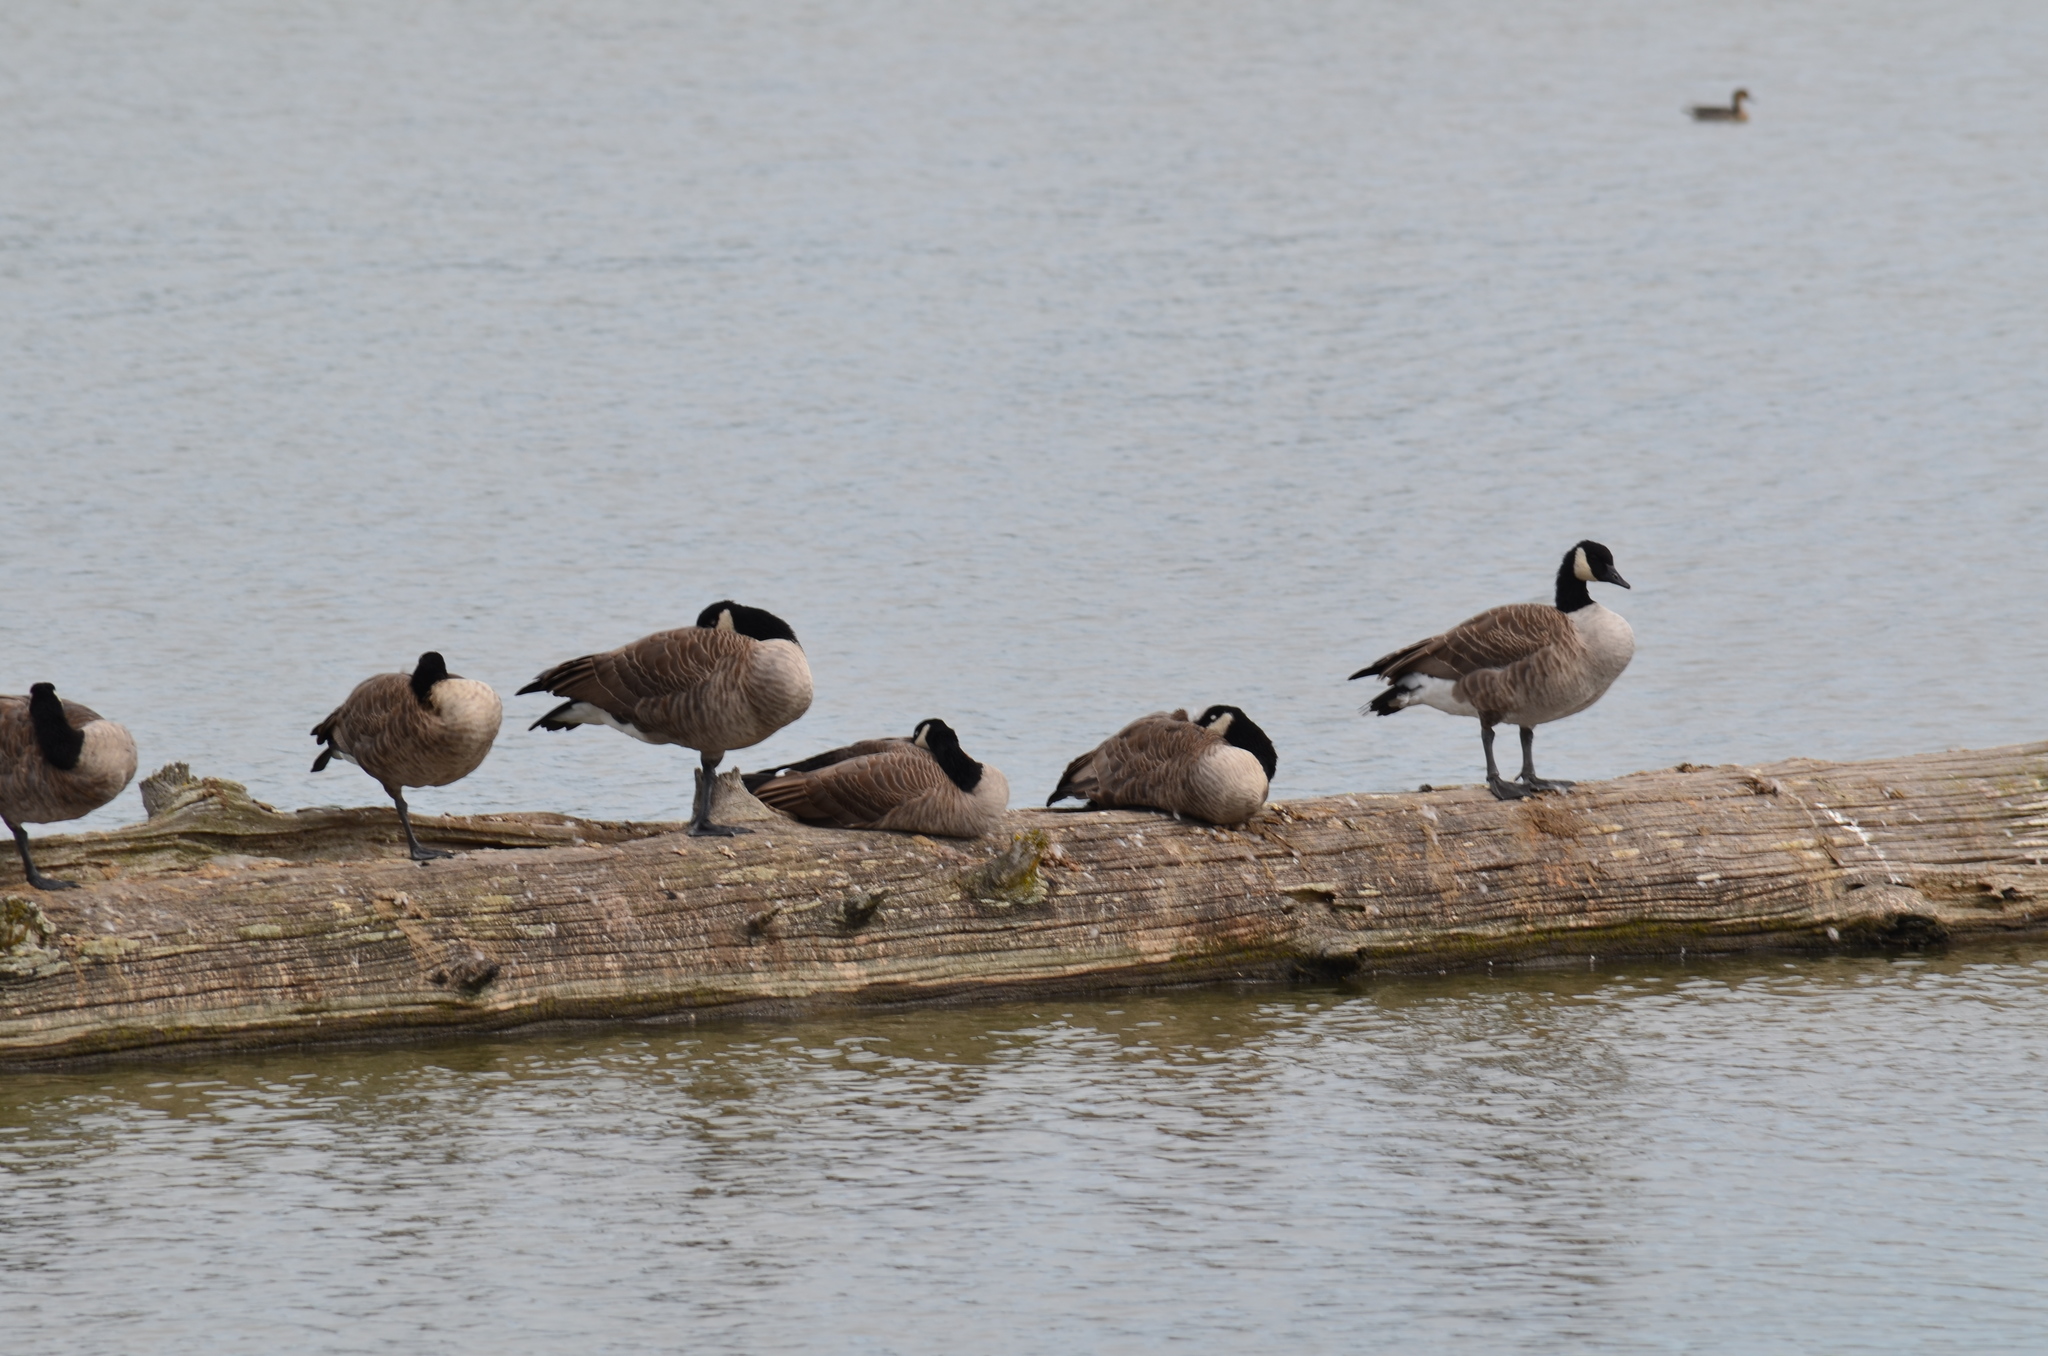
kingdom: Animalia
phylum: Chordata
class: Aves
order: Anseriformes
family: Anatidae
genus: Branta
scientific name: Branta canadensis
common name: Canada goose
